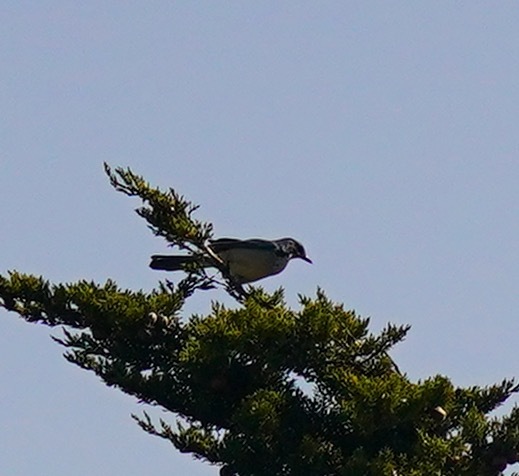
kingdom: Animalia
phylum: Chordata
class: Aves
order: Passeriformes
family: Corvidae
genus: Aphelocoma
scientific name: Aphelocoma californica
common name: California scrub-jay
